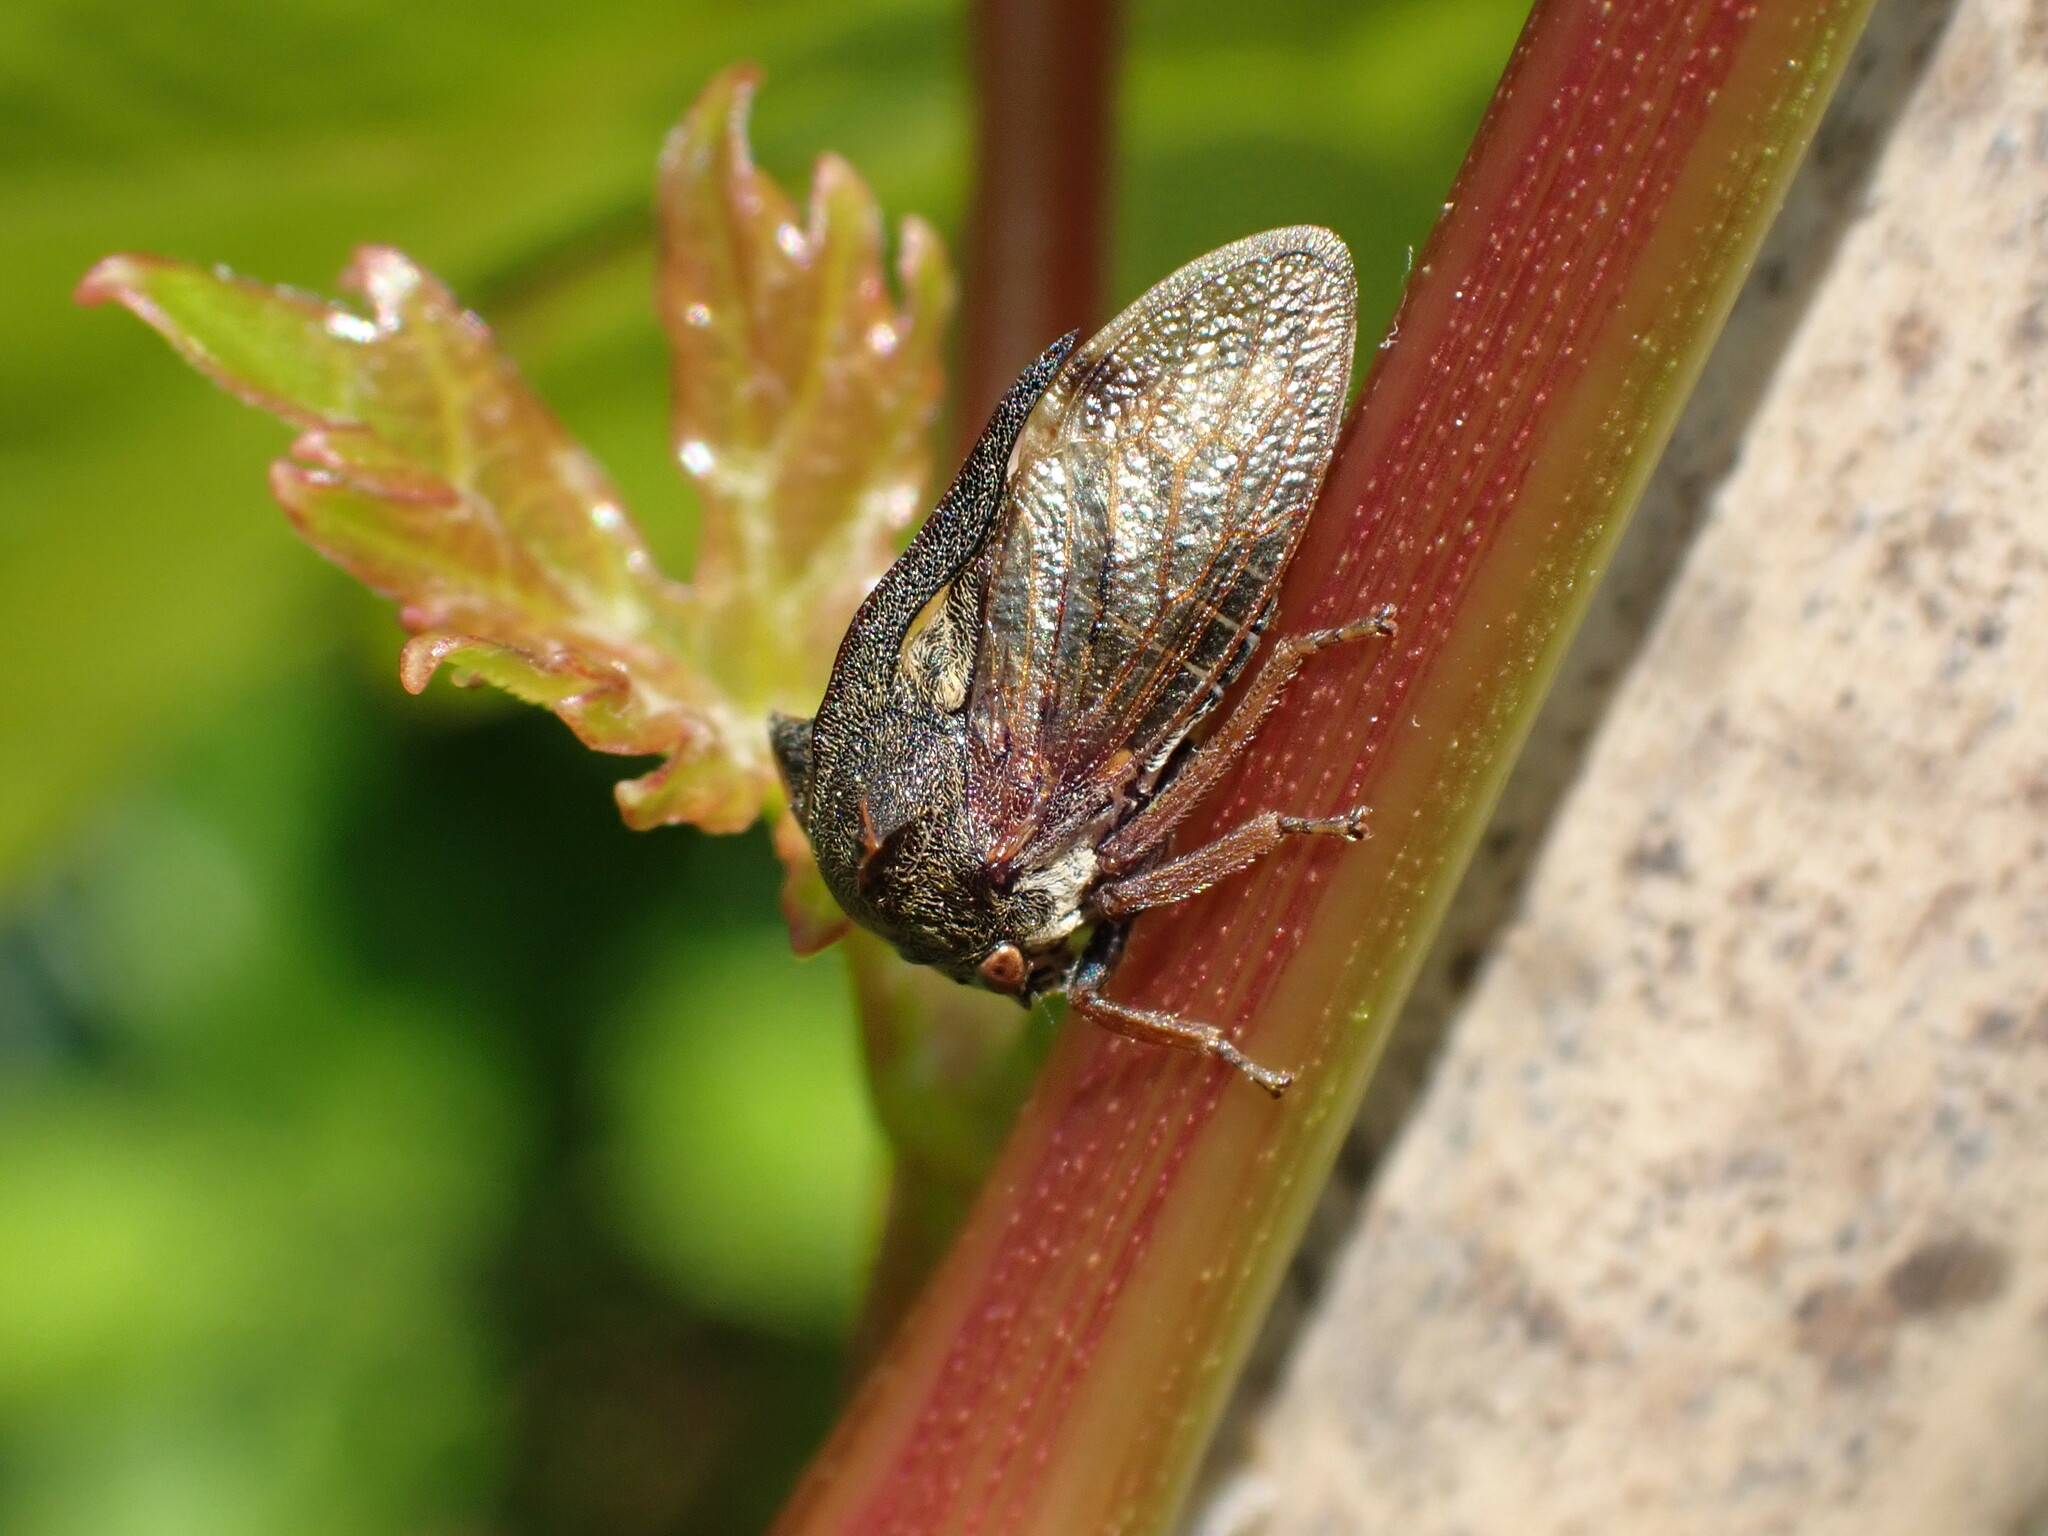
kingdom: Animalia
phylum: Arthropoda
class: Insecta
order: Hemiptera
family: Membracidae
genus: Centrotus
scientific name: Centrotus cornuta
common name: Treehopper
